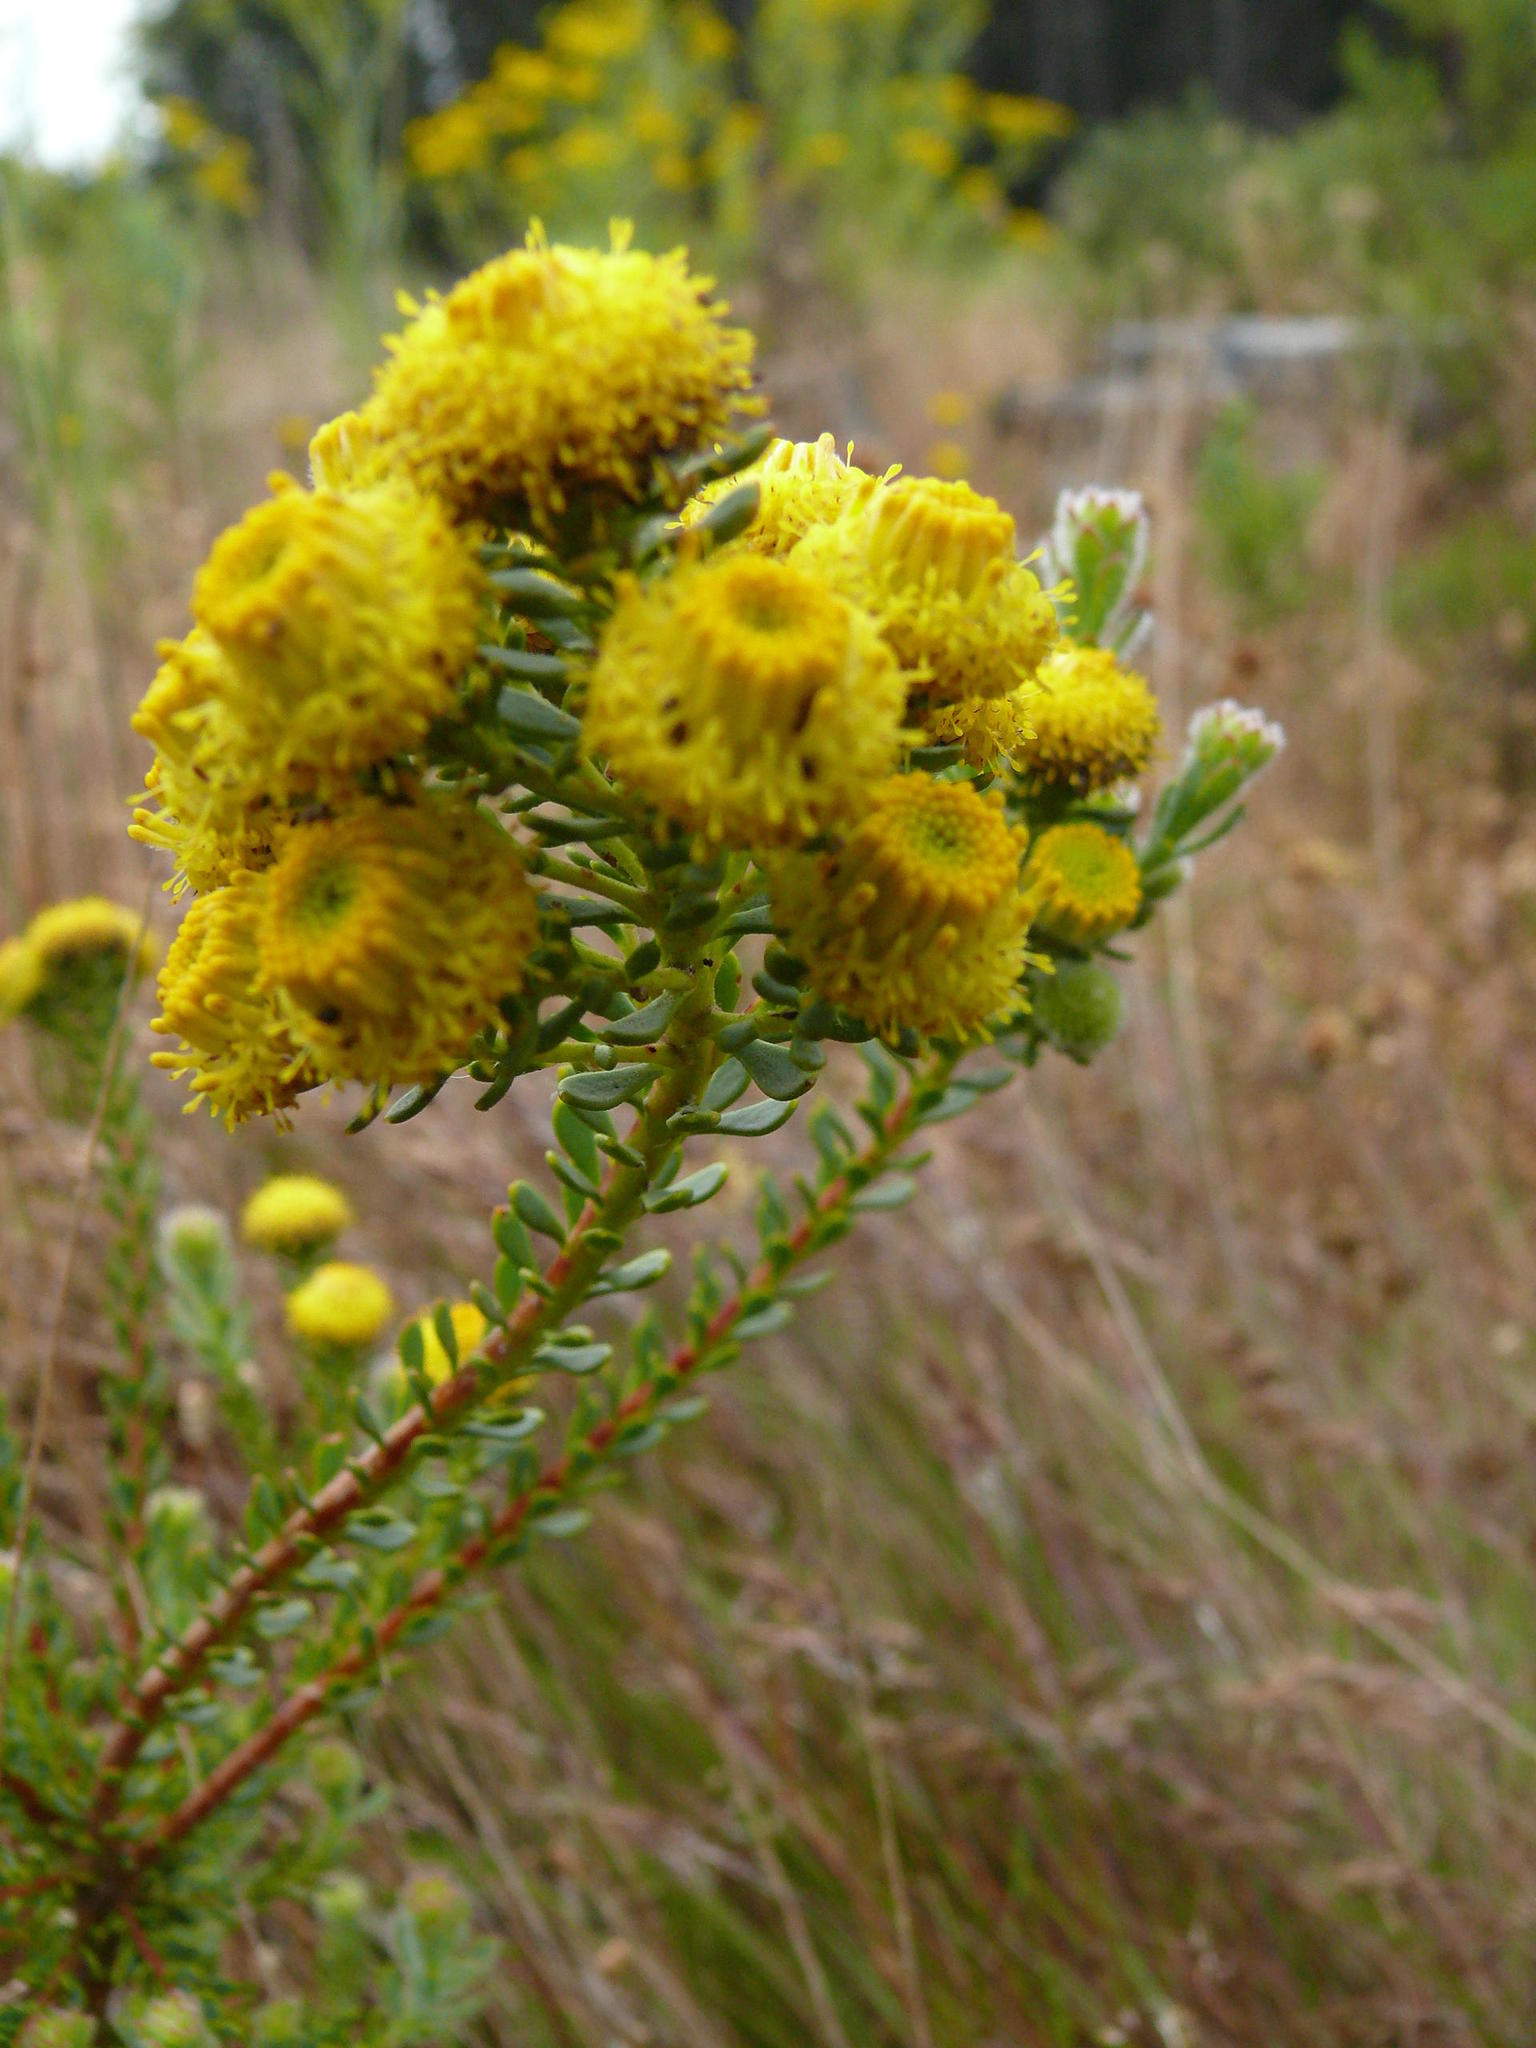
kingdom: Plantae
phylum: Tracheophyta
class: Magnoliopsida
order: Proteales
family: Proteaceae
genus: Leucadendron
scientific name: Leucadendron levisanus
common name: Cape flats conebush
